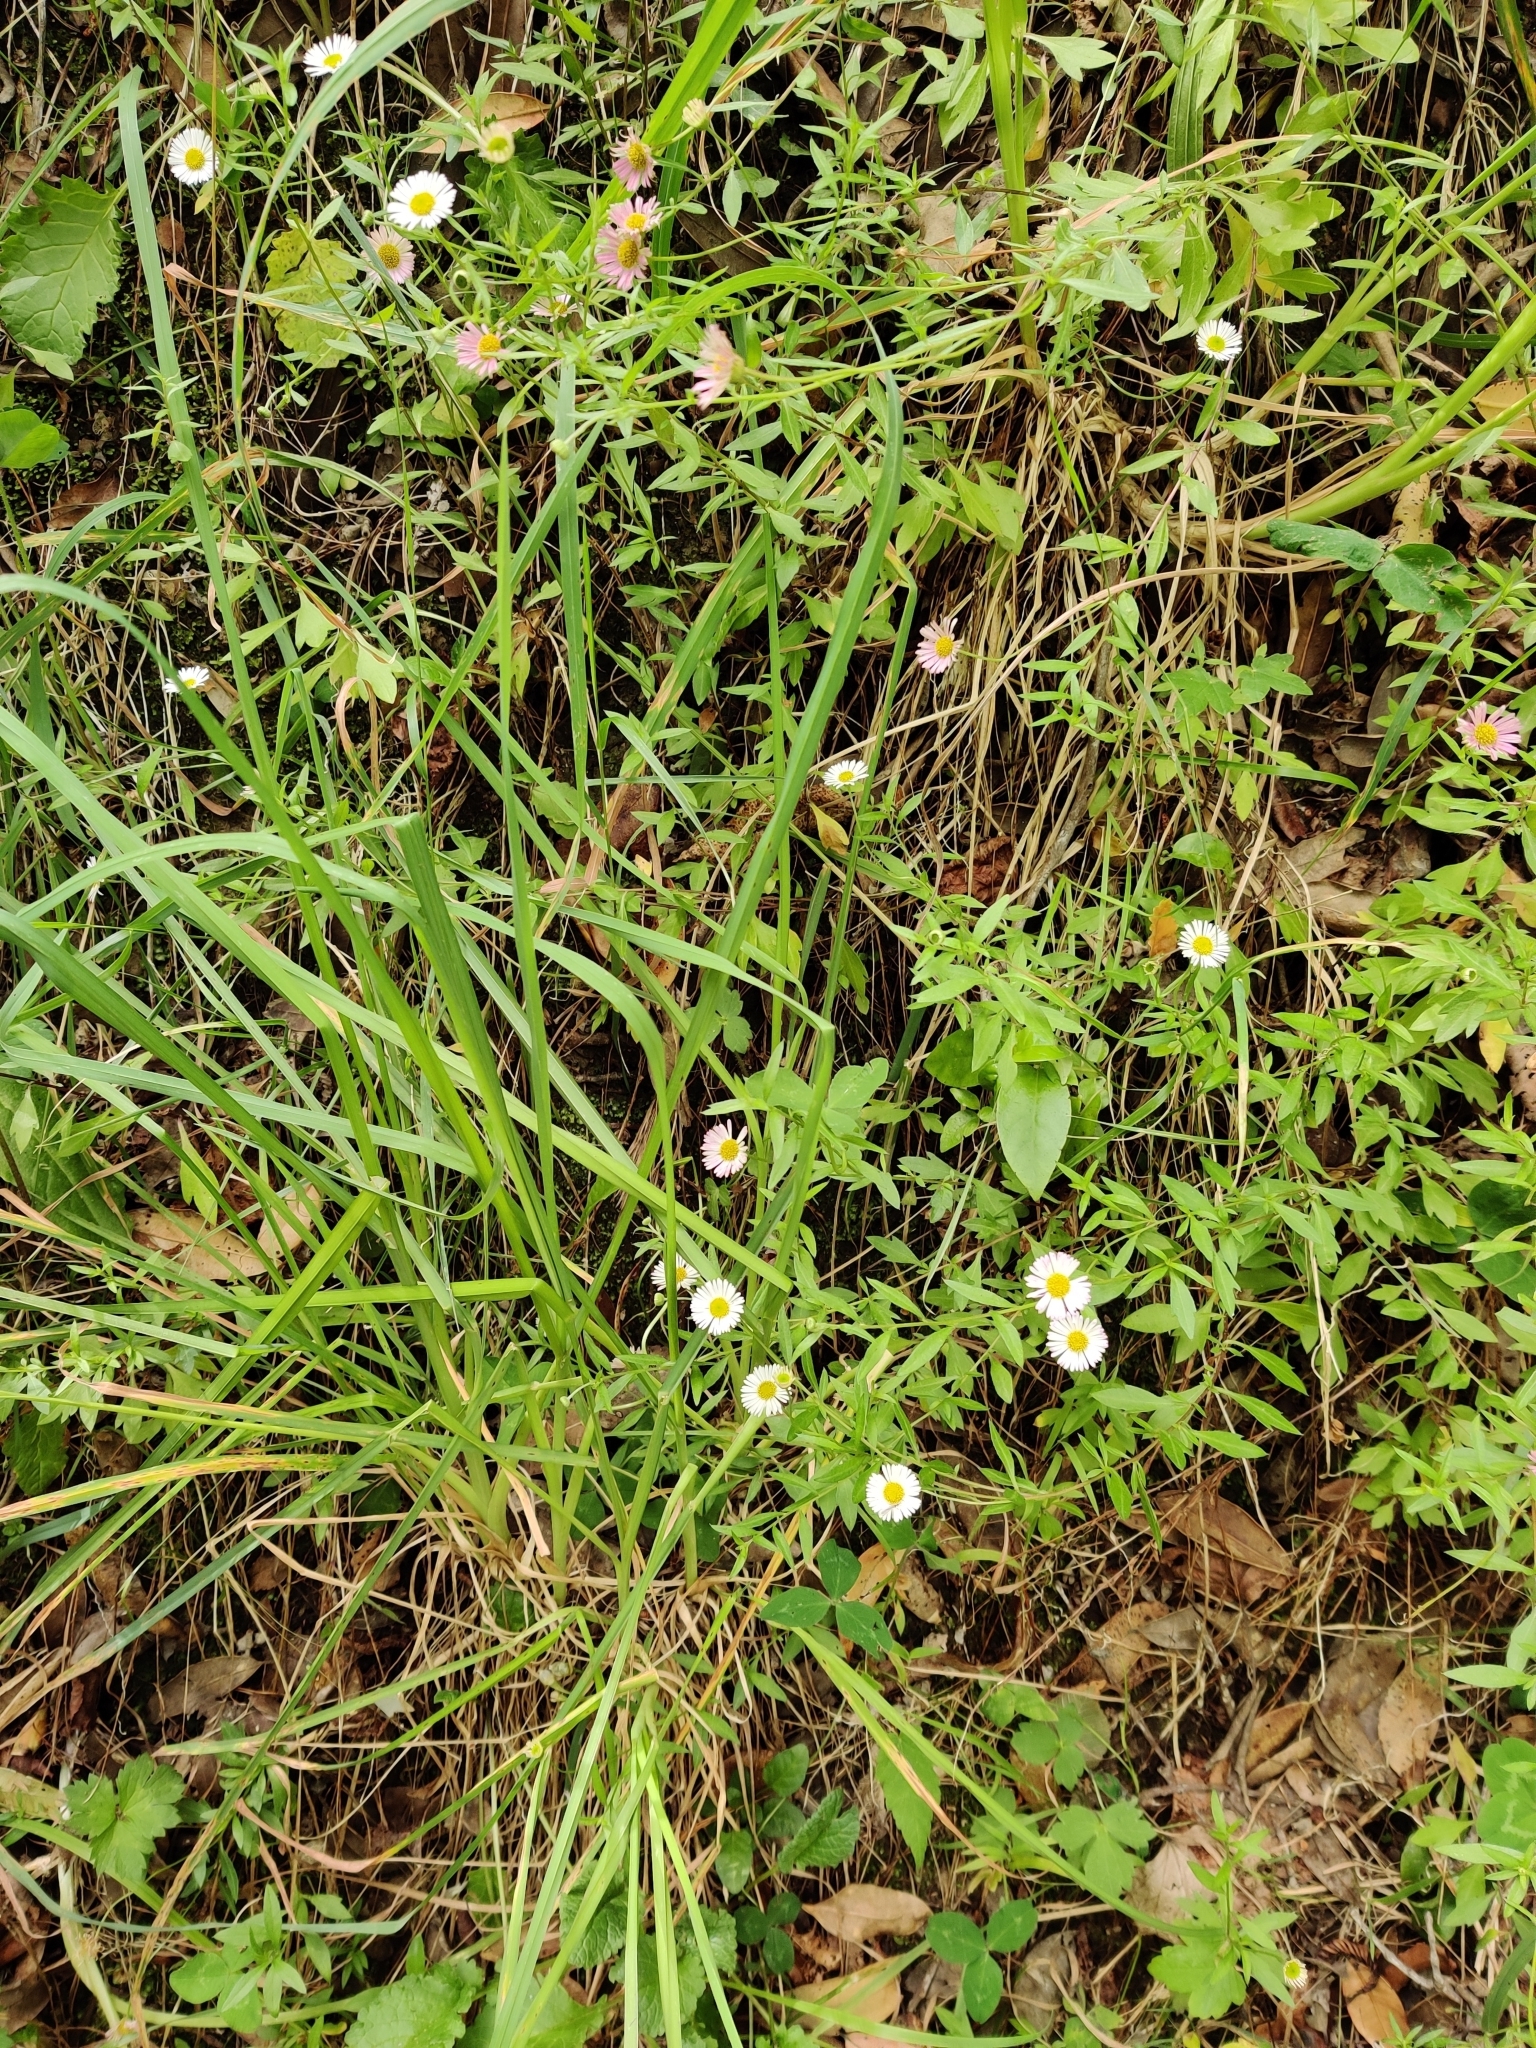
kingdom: Plantae
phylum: Tracheophyta
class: Magnoliopsida
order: Asterales
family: Asteraceae
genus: Erigeron
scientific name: Erigeron karvinskianus
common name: Mexican fleabane
